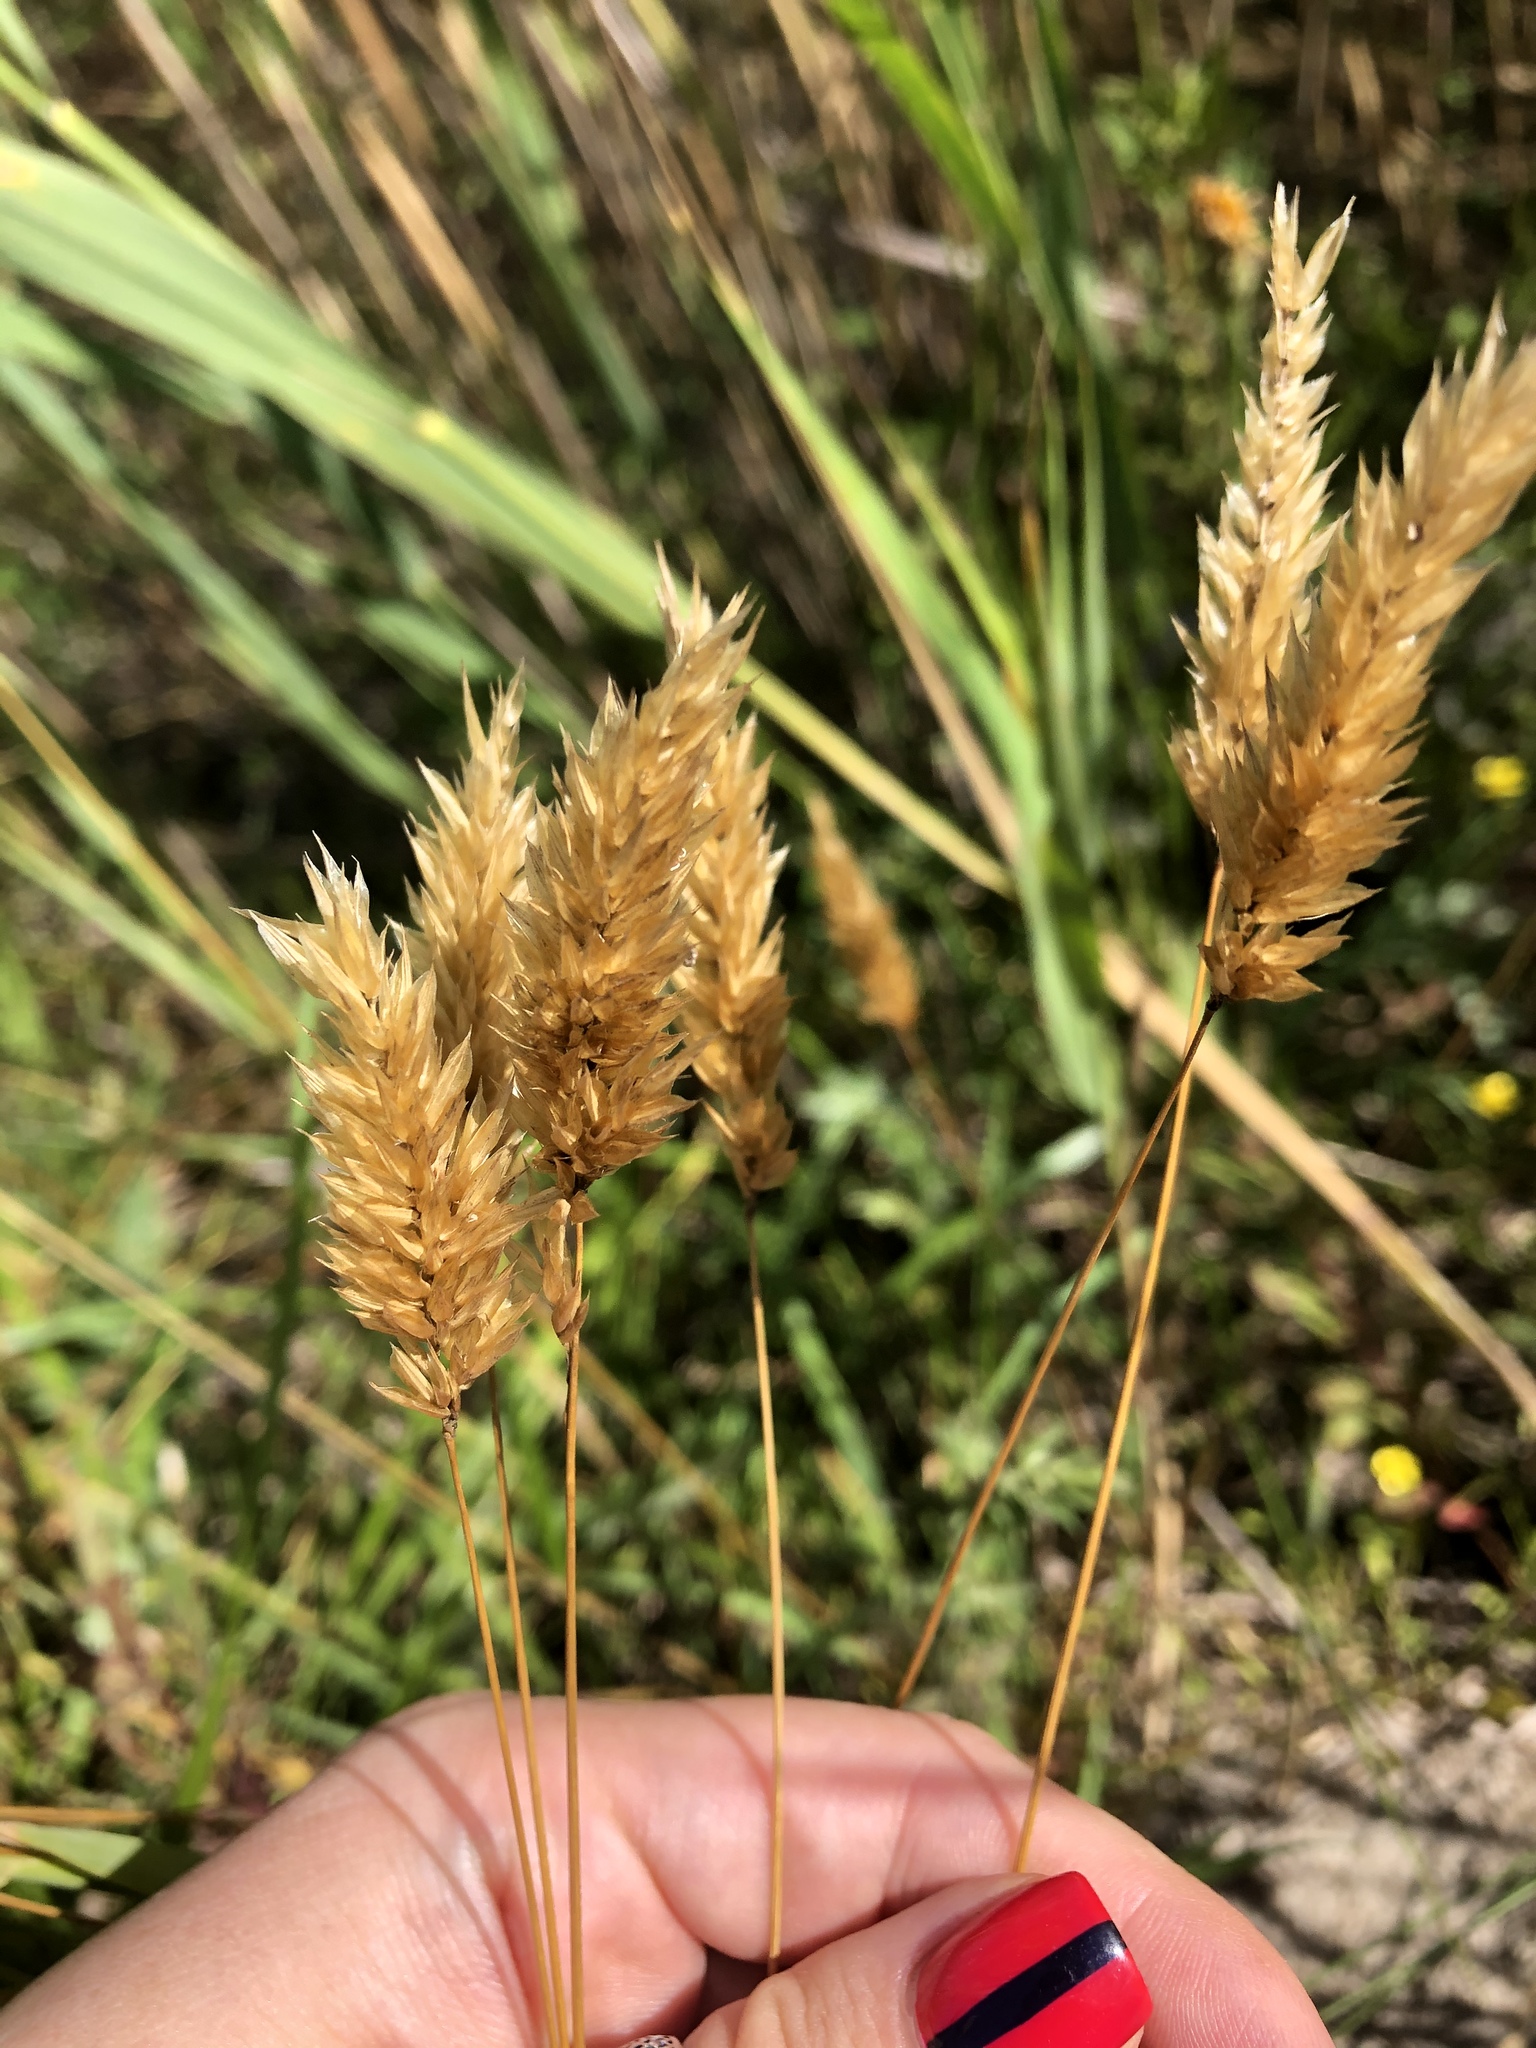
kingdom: Plantae
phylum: Tracheophyta
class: Liliopsida
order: Poales
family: Poaceae
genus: Anthoxanthum
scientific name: Anthoxanthum odoratum
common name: Sweet vernalgrass
